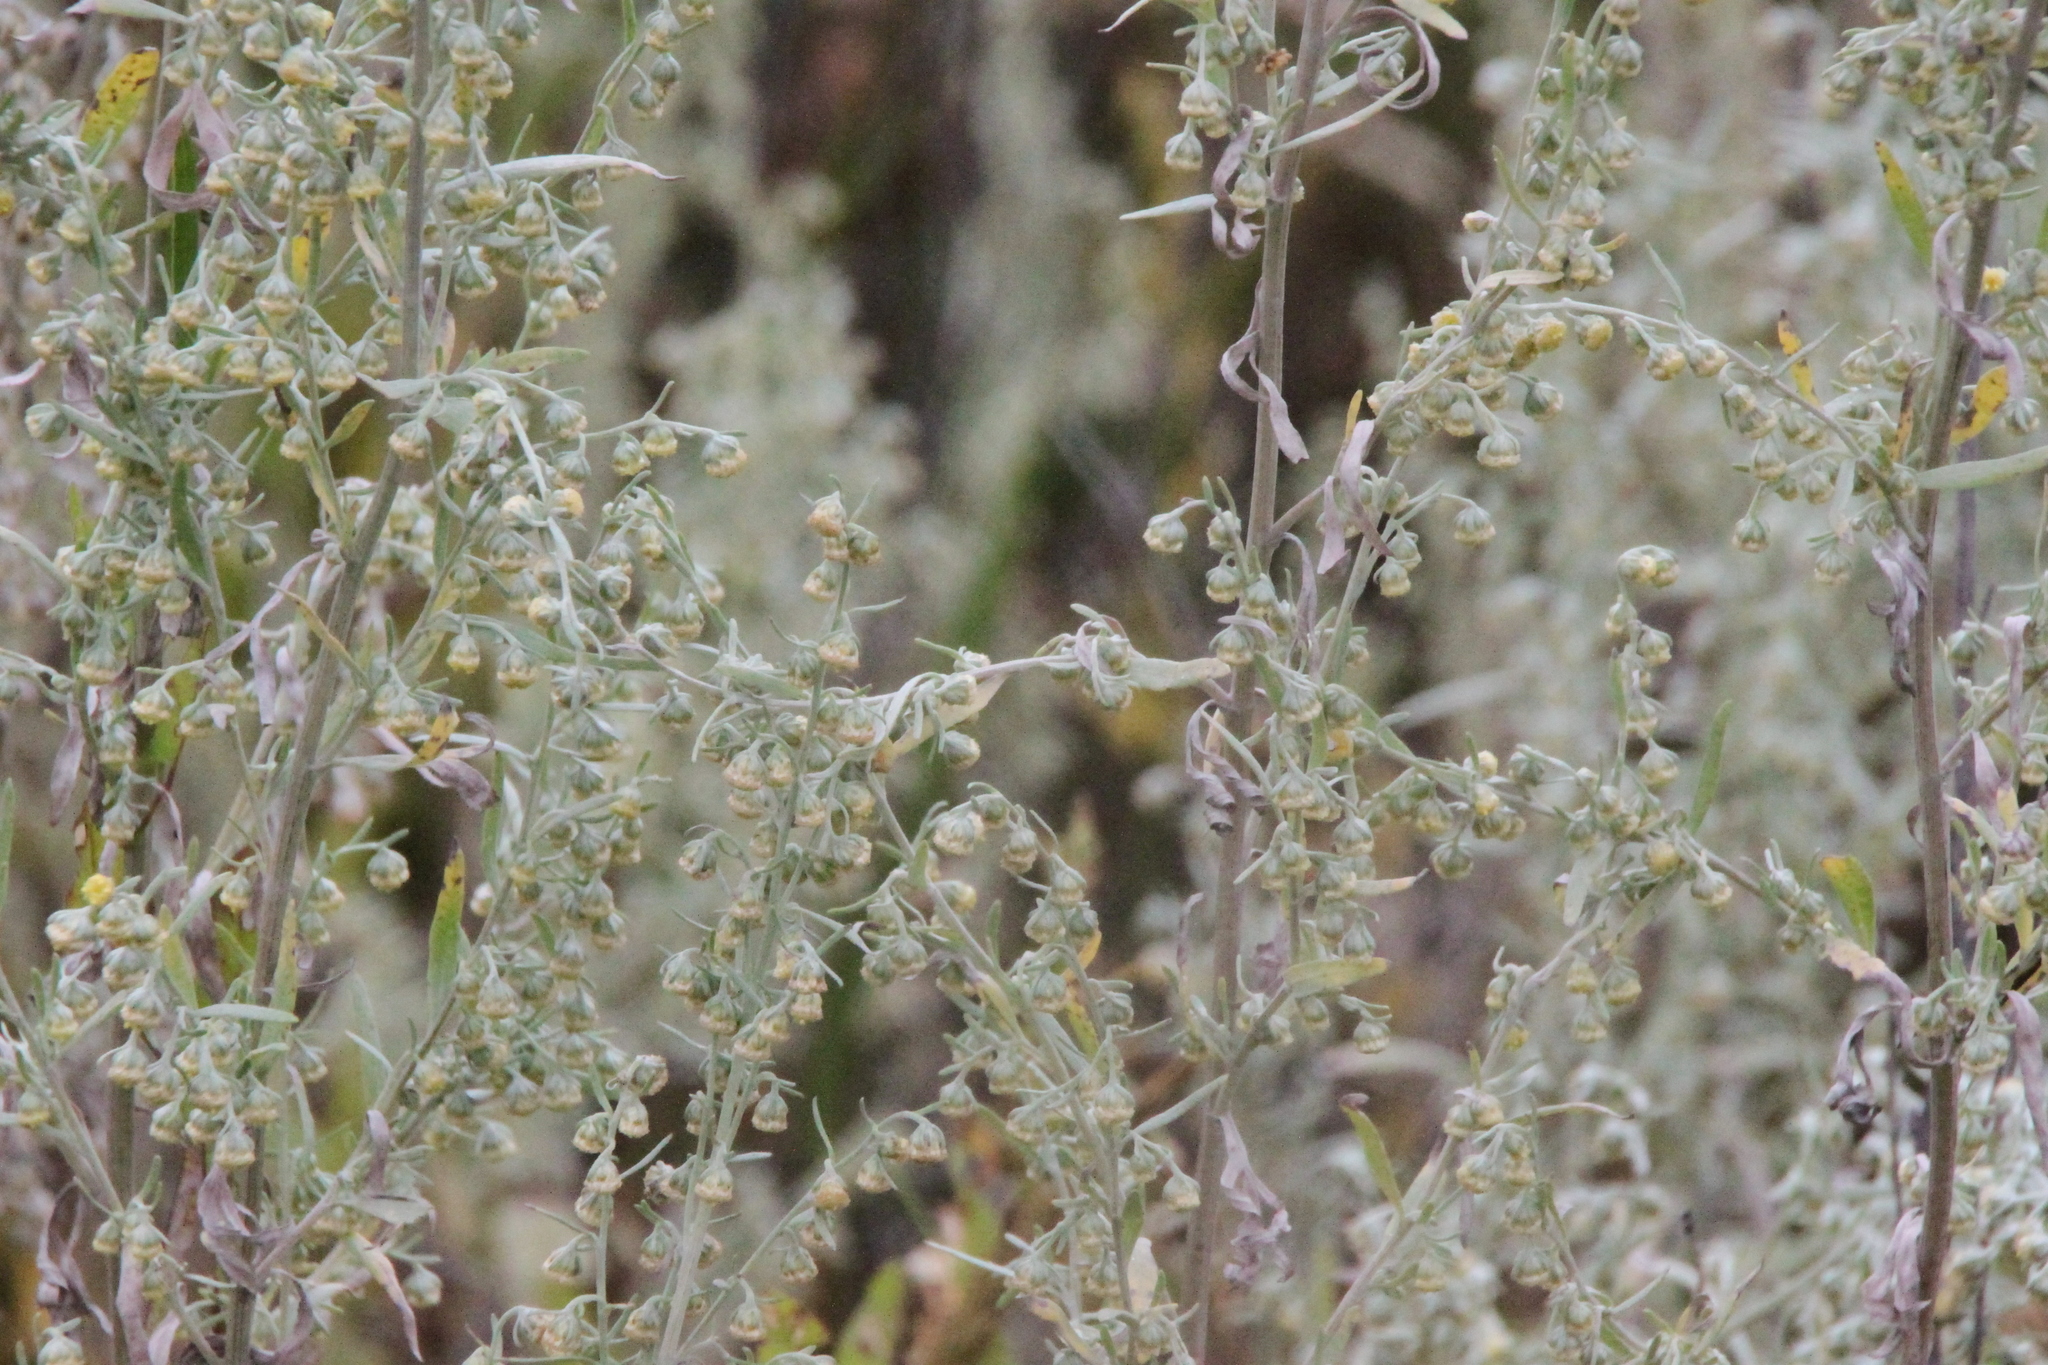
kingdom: Plantae
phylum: Tracheophyta
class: Magnoliopsida
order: Asterales
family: Asteraceae
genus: Artemisia
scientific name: Artemisia absinthium
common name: Wormwood
